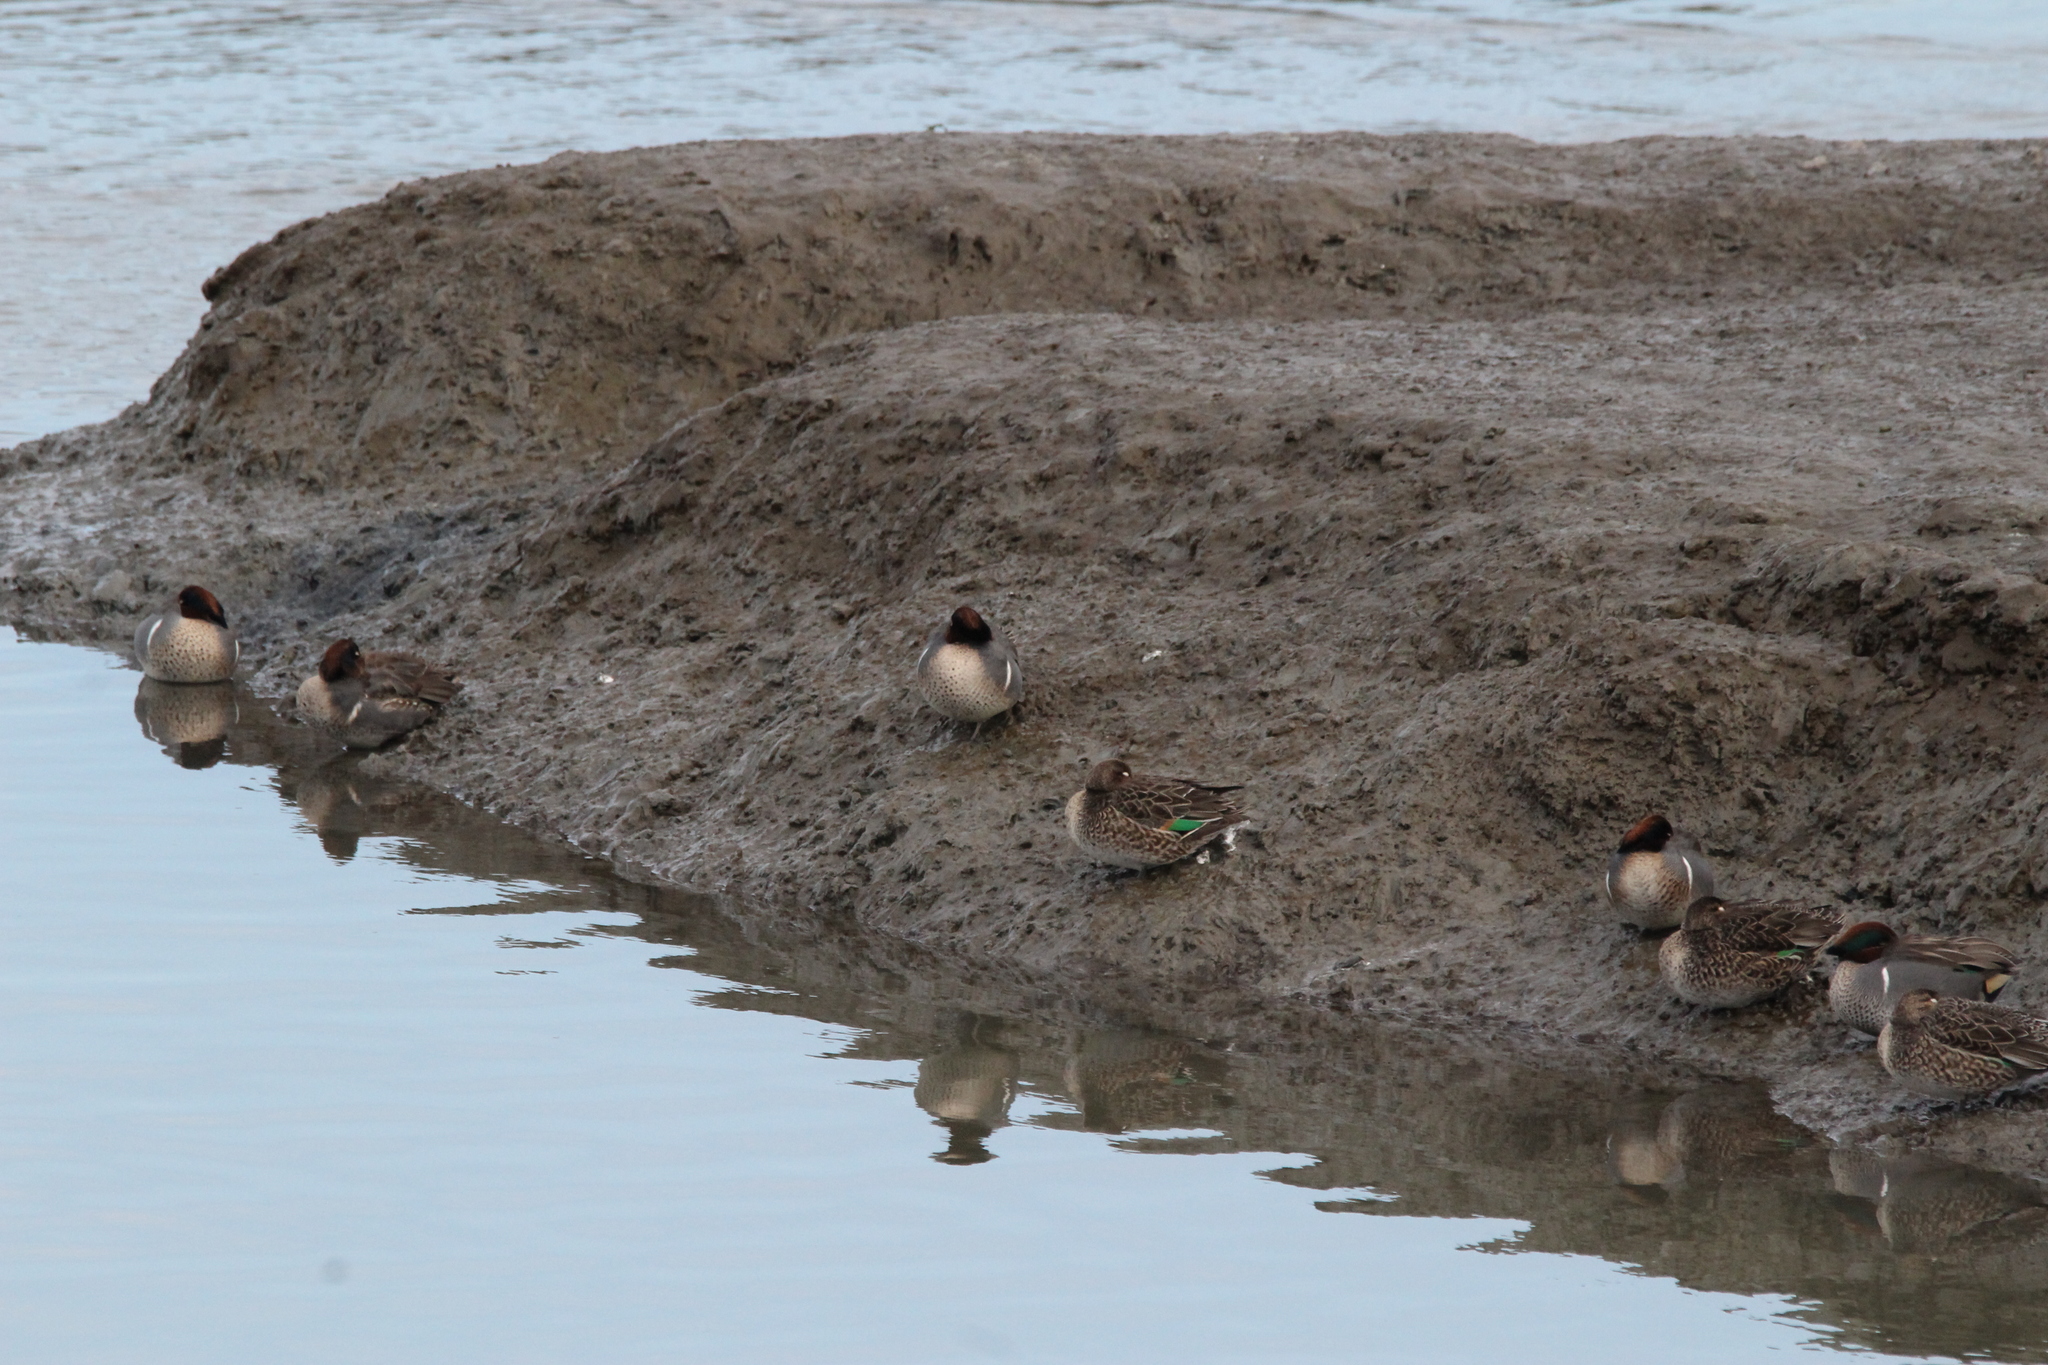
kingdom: Animalia
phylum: Chordata
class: Aves
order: Anseriformes
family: Anatidae
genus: Anas
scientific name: Anas crecca
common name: Eurasian teal
